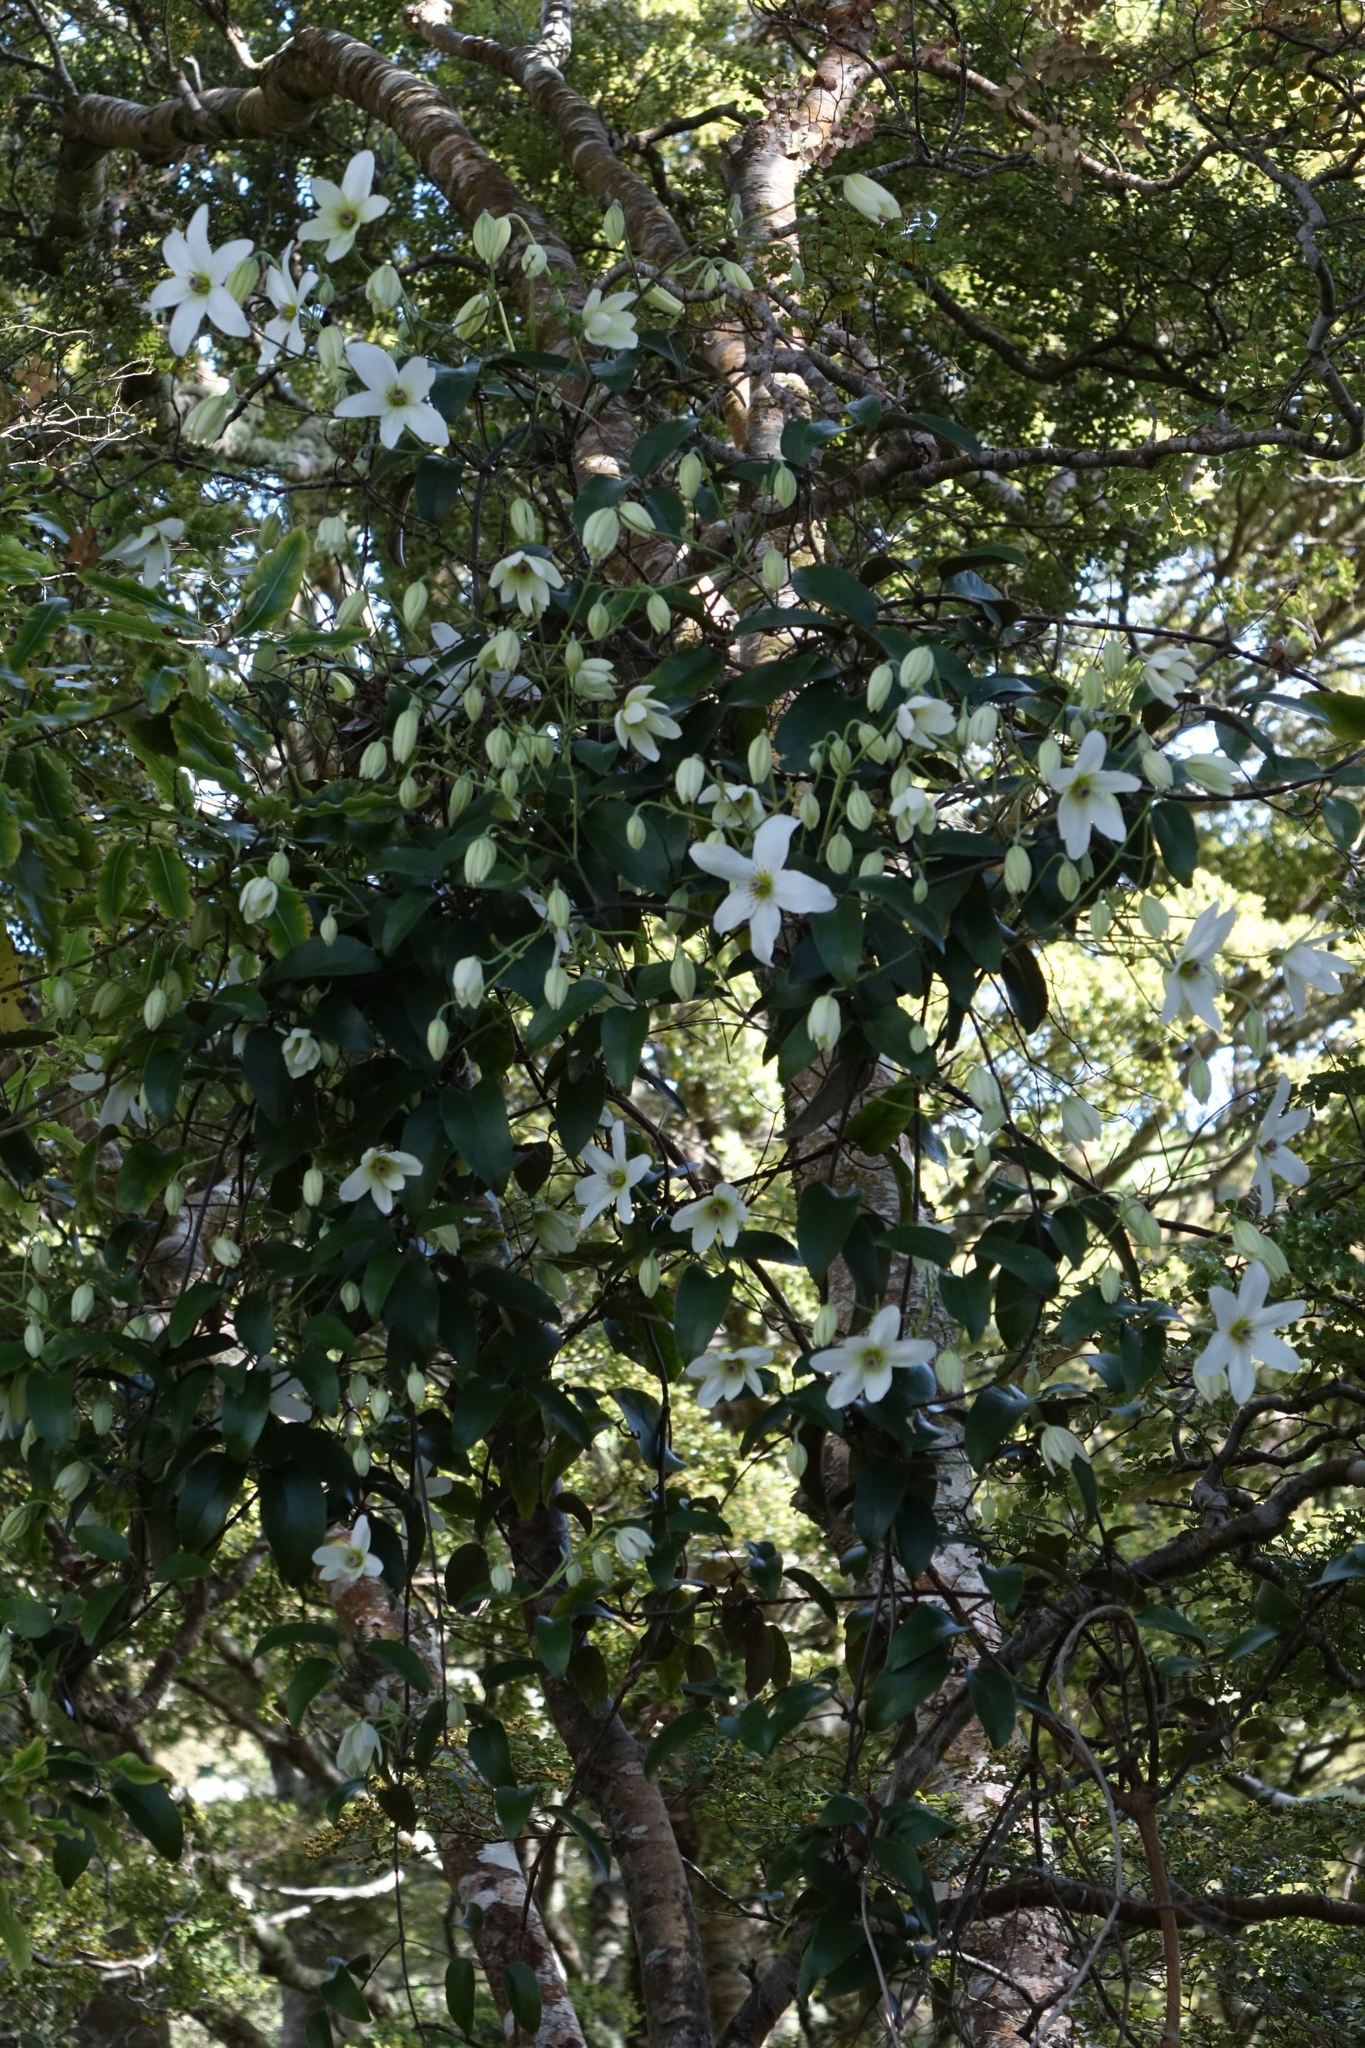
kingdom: Plantae
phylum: Tracheophyta
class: Magnoliopsida
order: Ranunculales
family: Ranunculaceae
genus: Clematis
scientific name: Clematis paniculata
